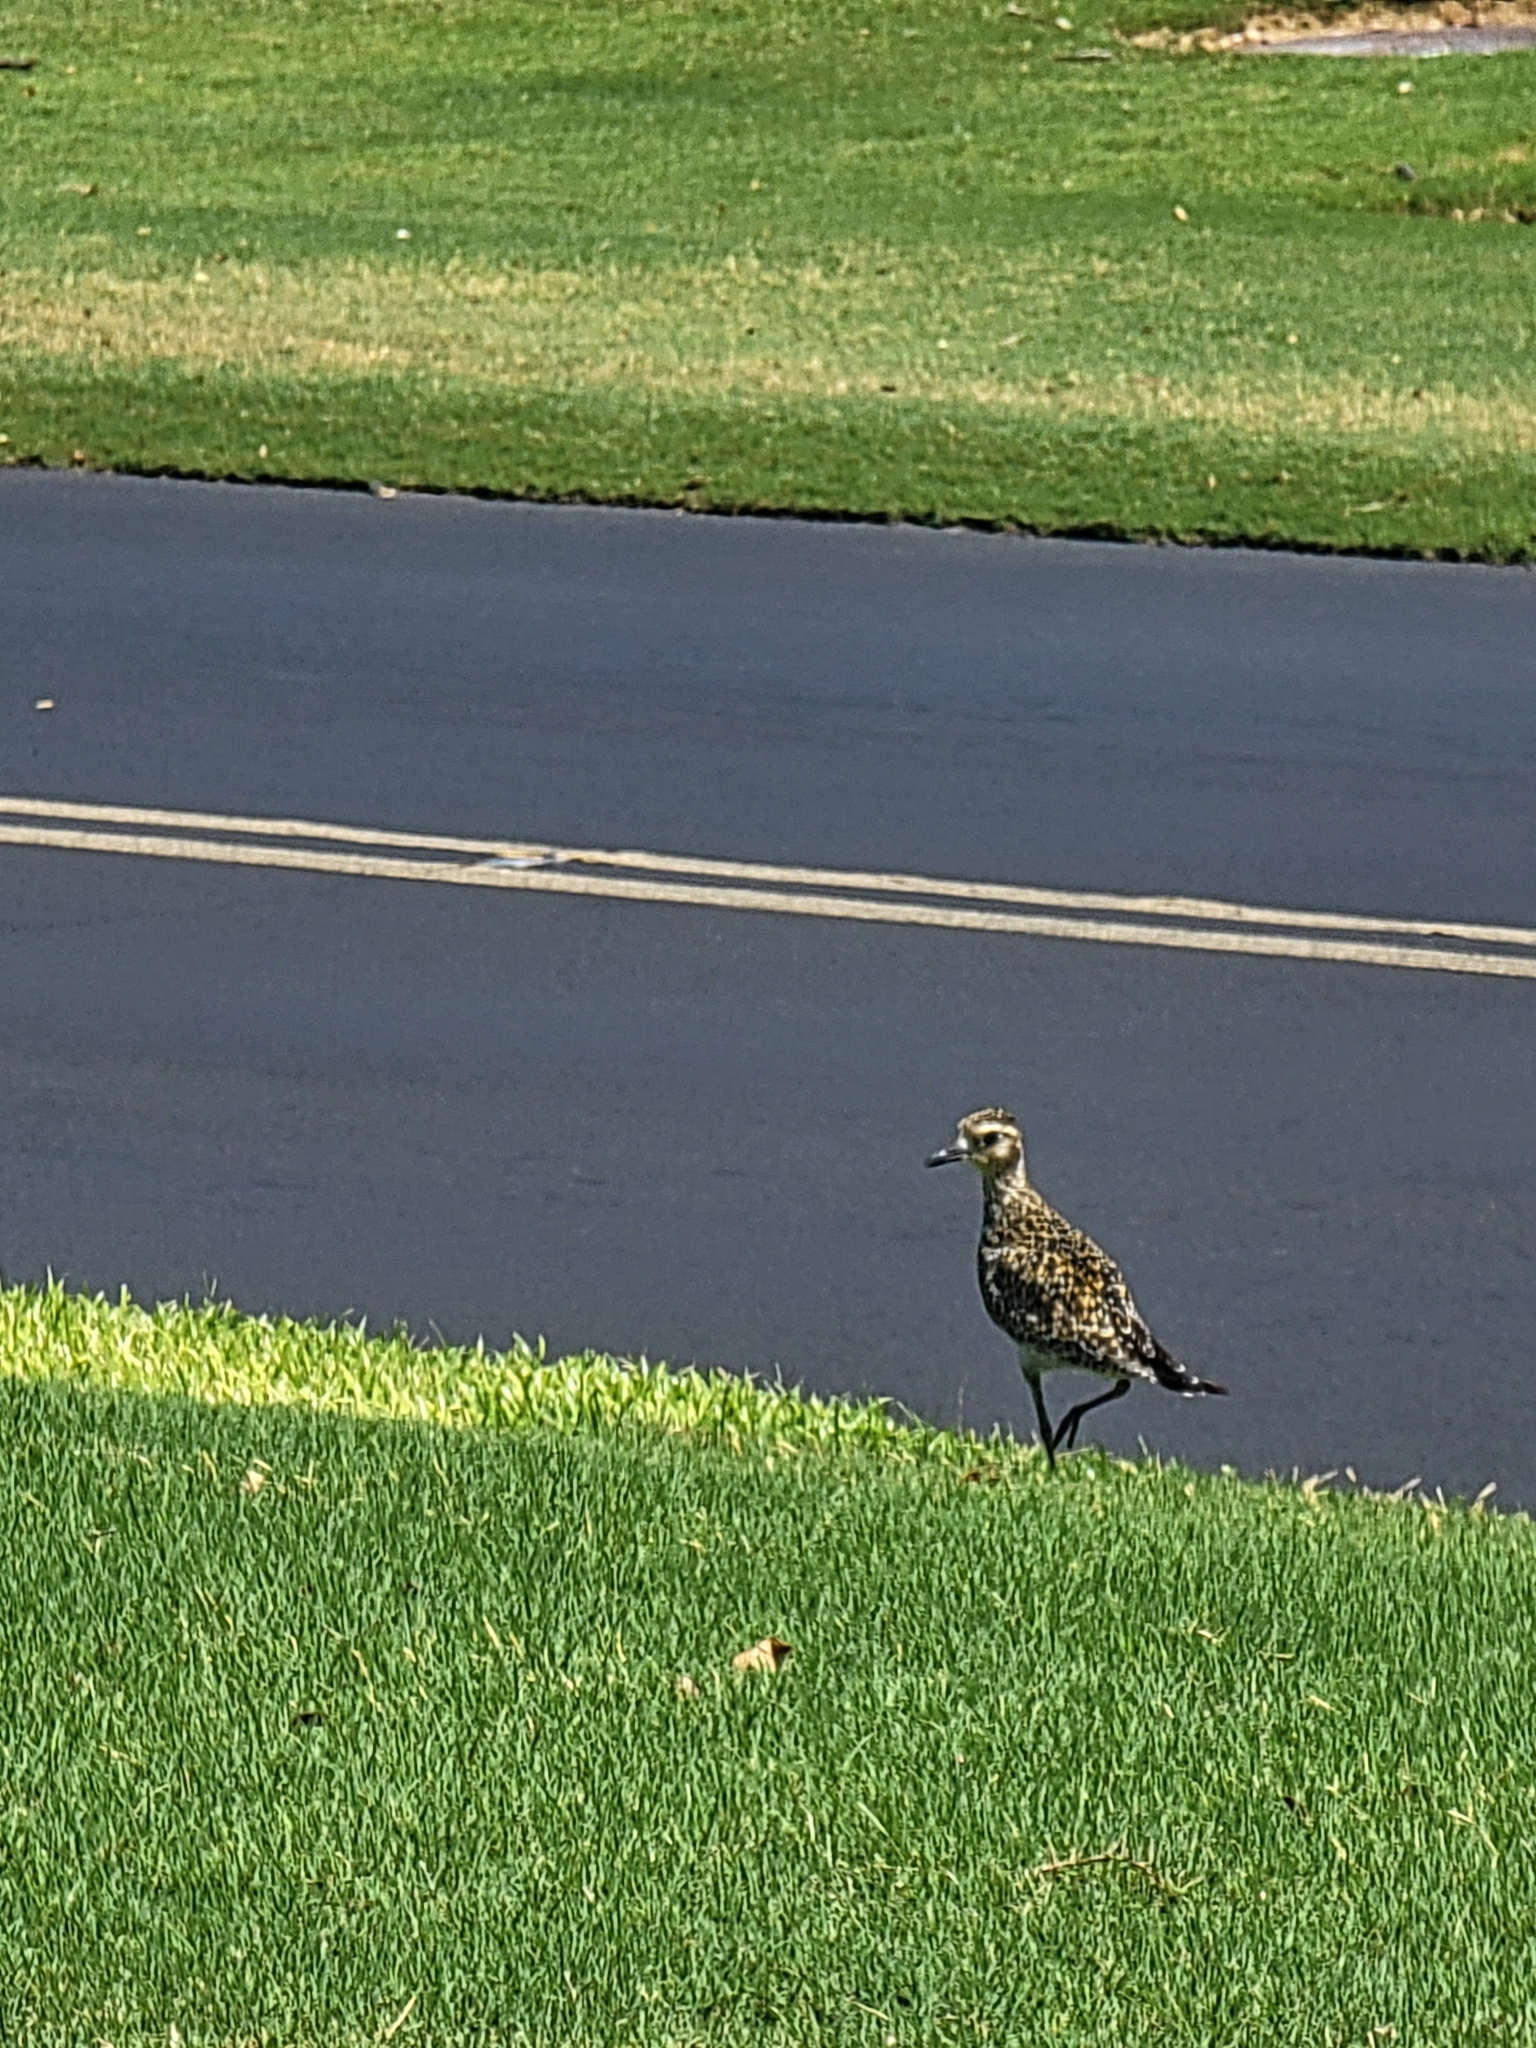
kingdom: Animalia
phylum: Chordata
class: Aves
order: Charadriiformes
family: Charadriidae
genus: Pluvialis
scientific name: Pluvialis fulva
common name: Pacific golden plover
